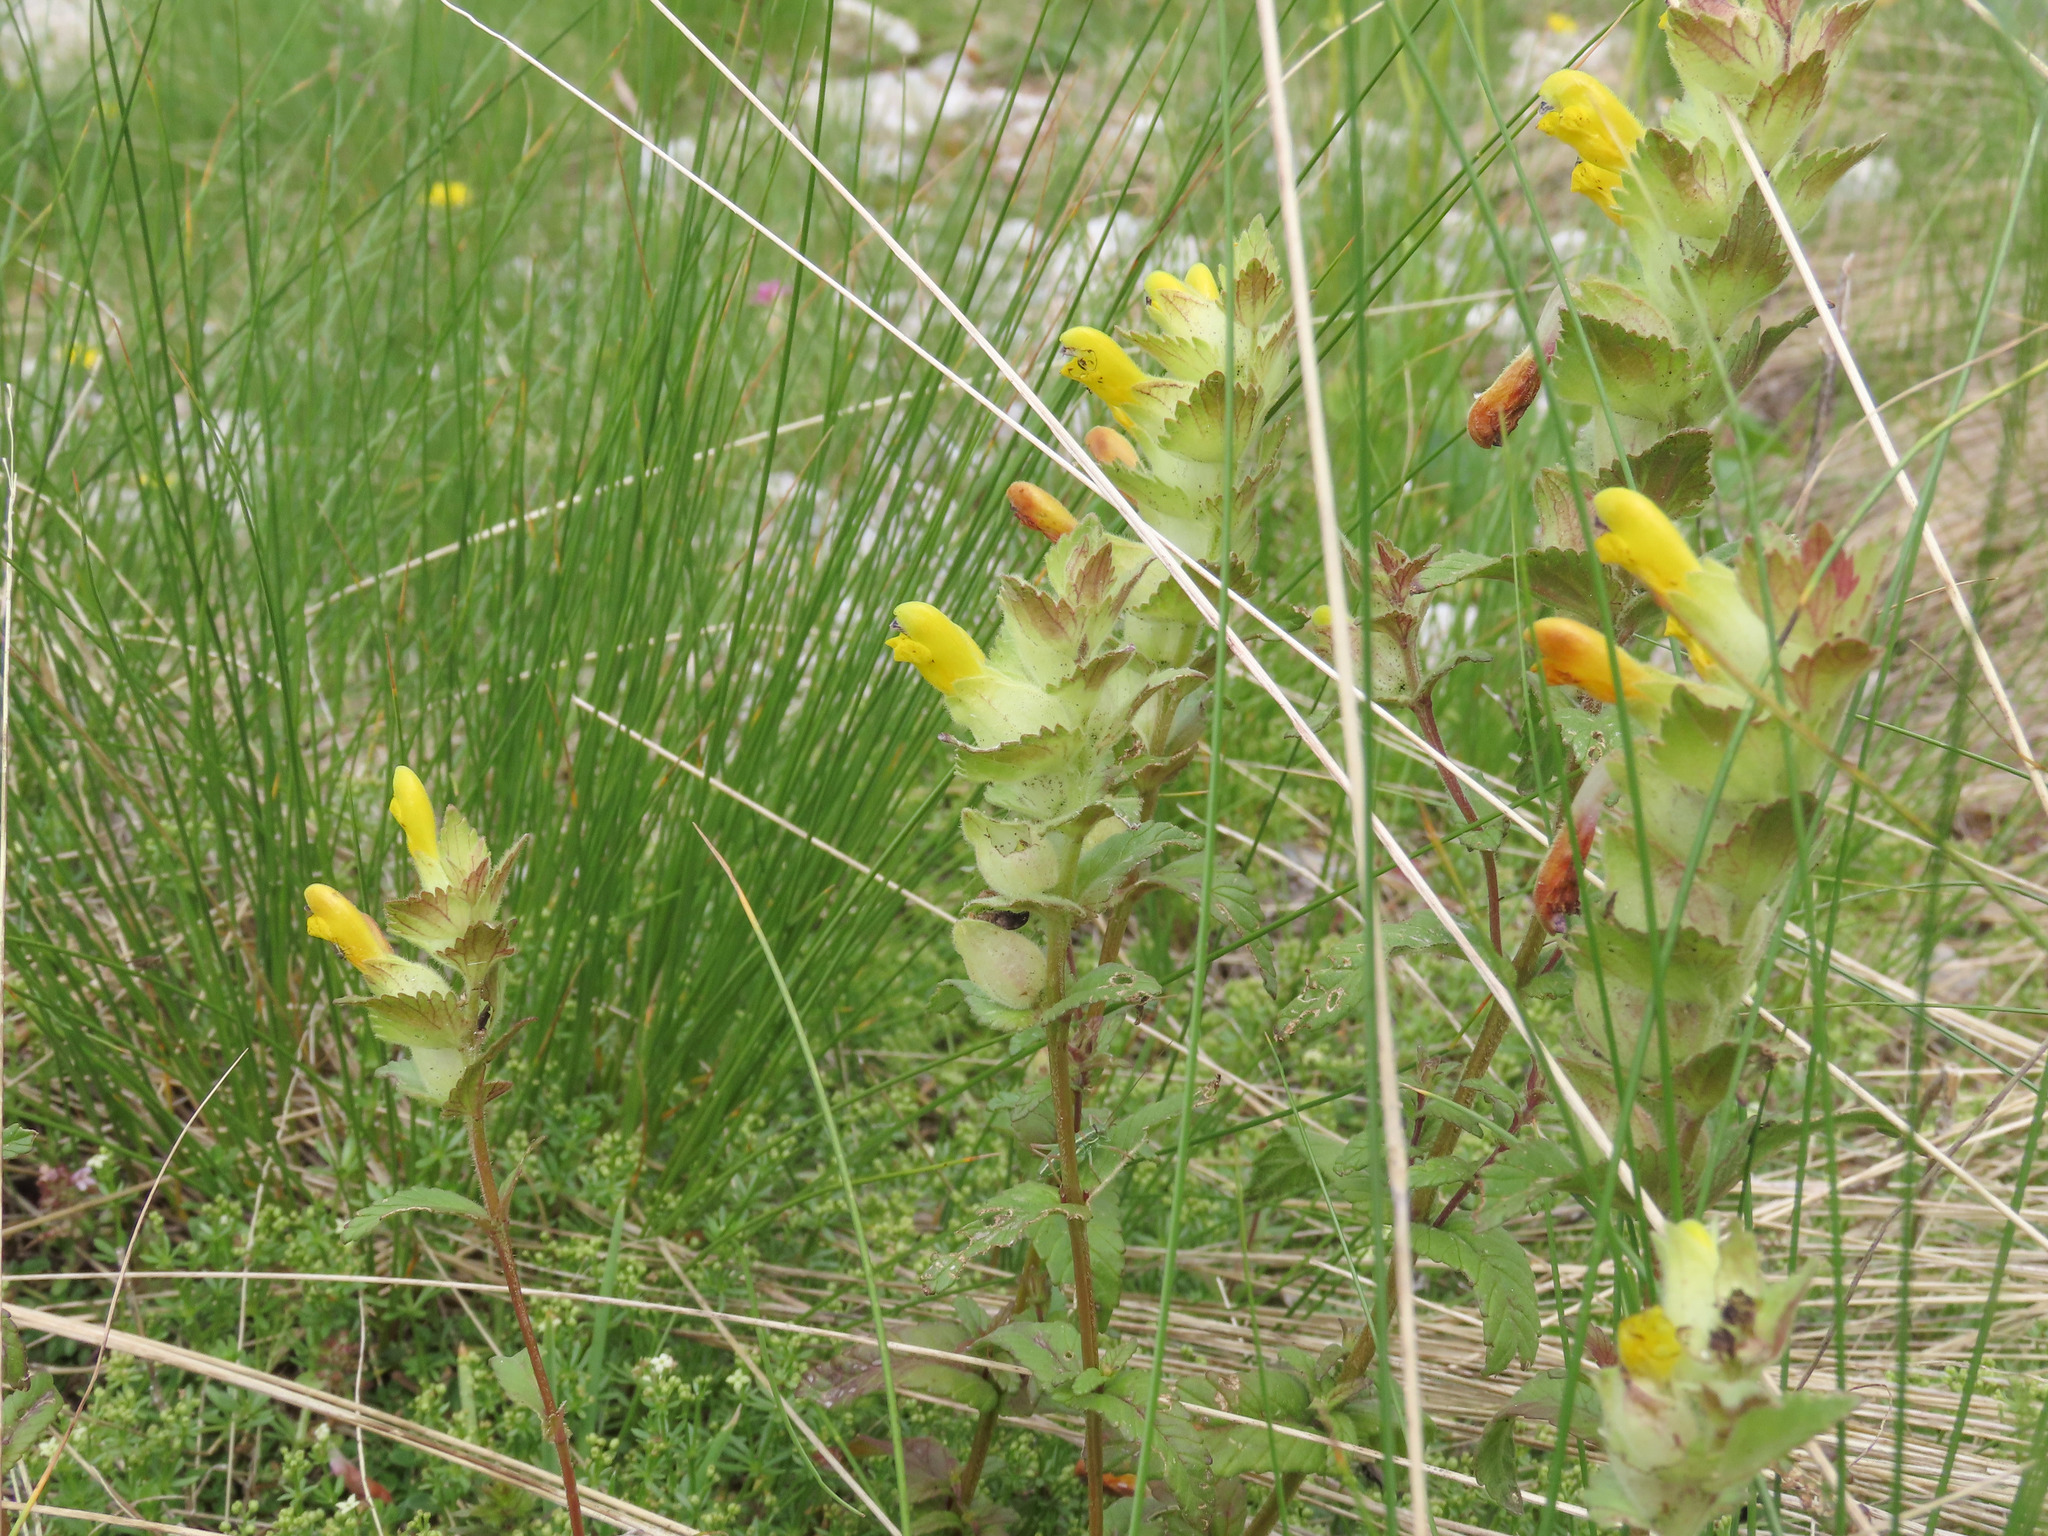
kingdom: Plantae
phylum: Tracheophyta
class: Magnoliopsida
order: Lamiales
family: Orobanchaceae
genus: Rhinanthus
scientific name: Rhinanthus wettsteinii
